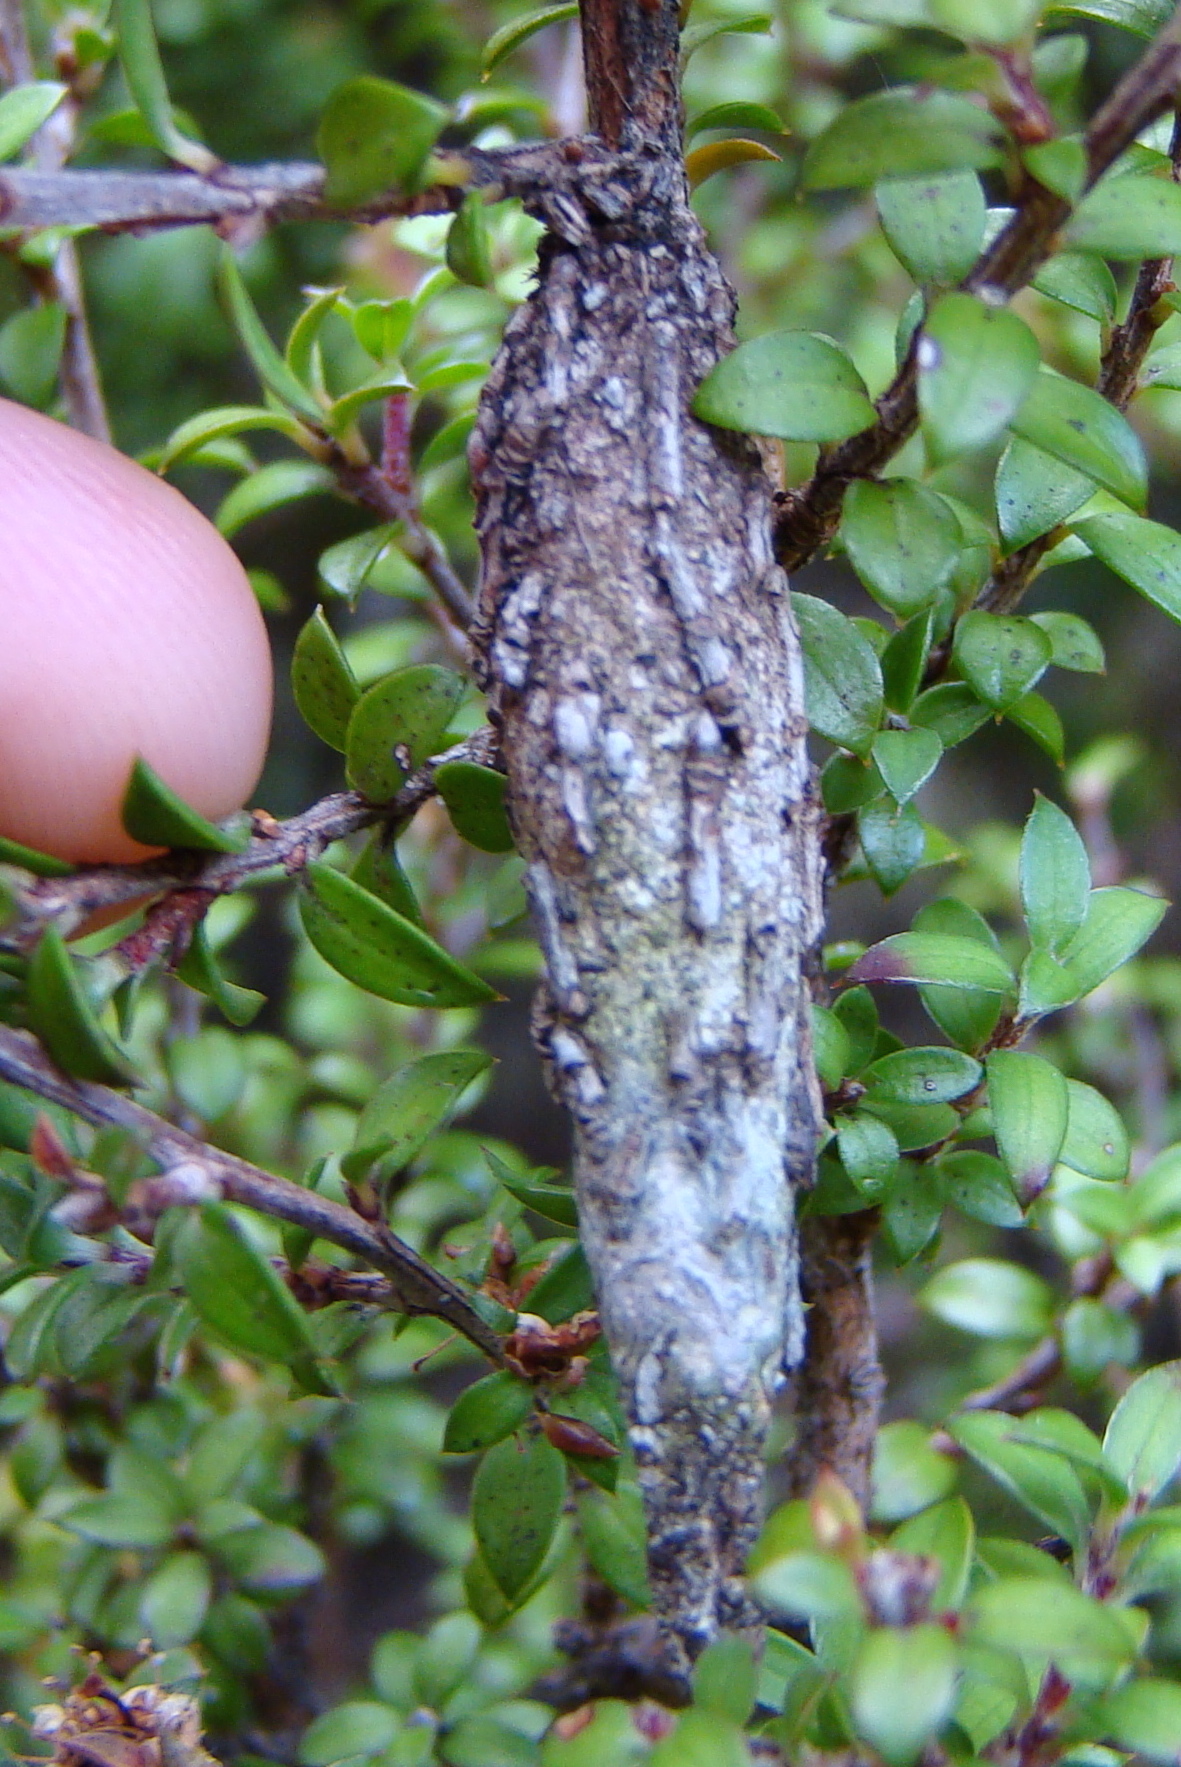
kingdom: Animalia
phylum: Arthropoda
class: Insecta
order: Lepidoptera
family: Psychidae
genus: Liothula
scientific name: Liothula omnivora
